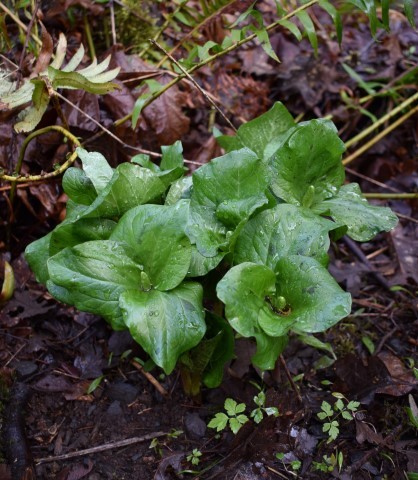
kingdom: Plantae
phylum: Tracheophyta
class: Liliopsida
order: Liliales
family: Melanthiaceae
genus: Trillium
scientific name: Trillium albidum
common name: Freeman's trillium
